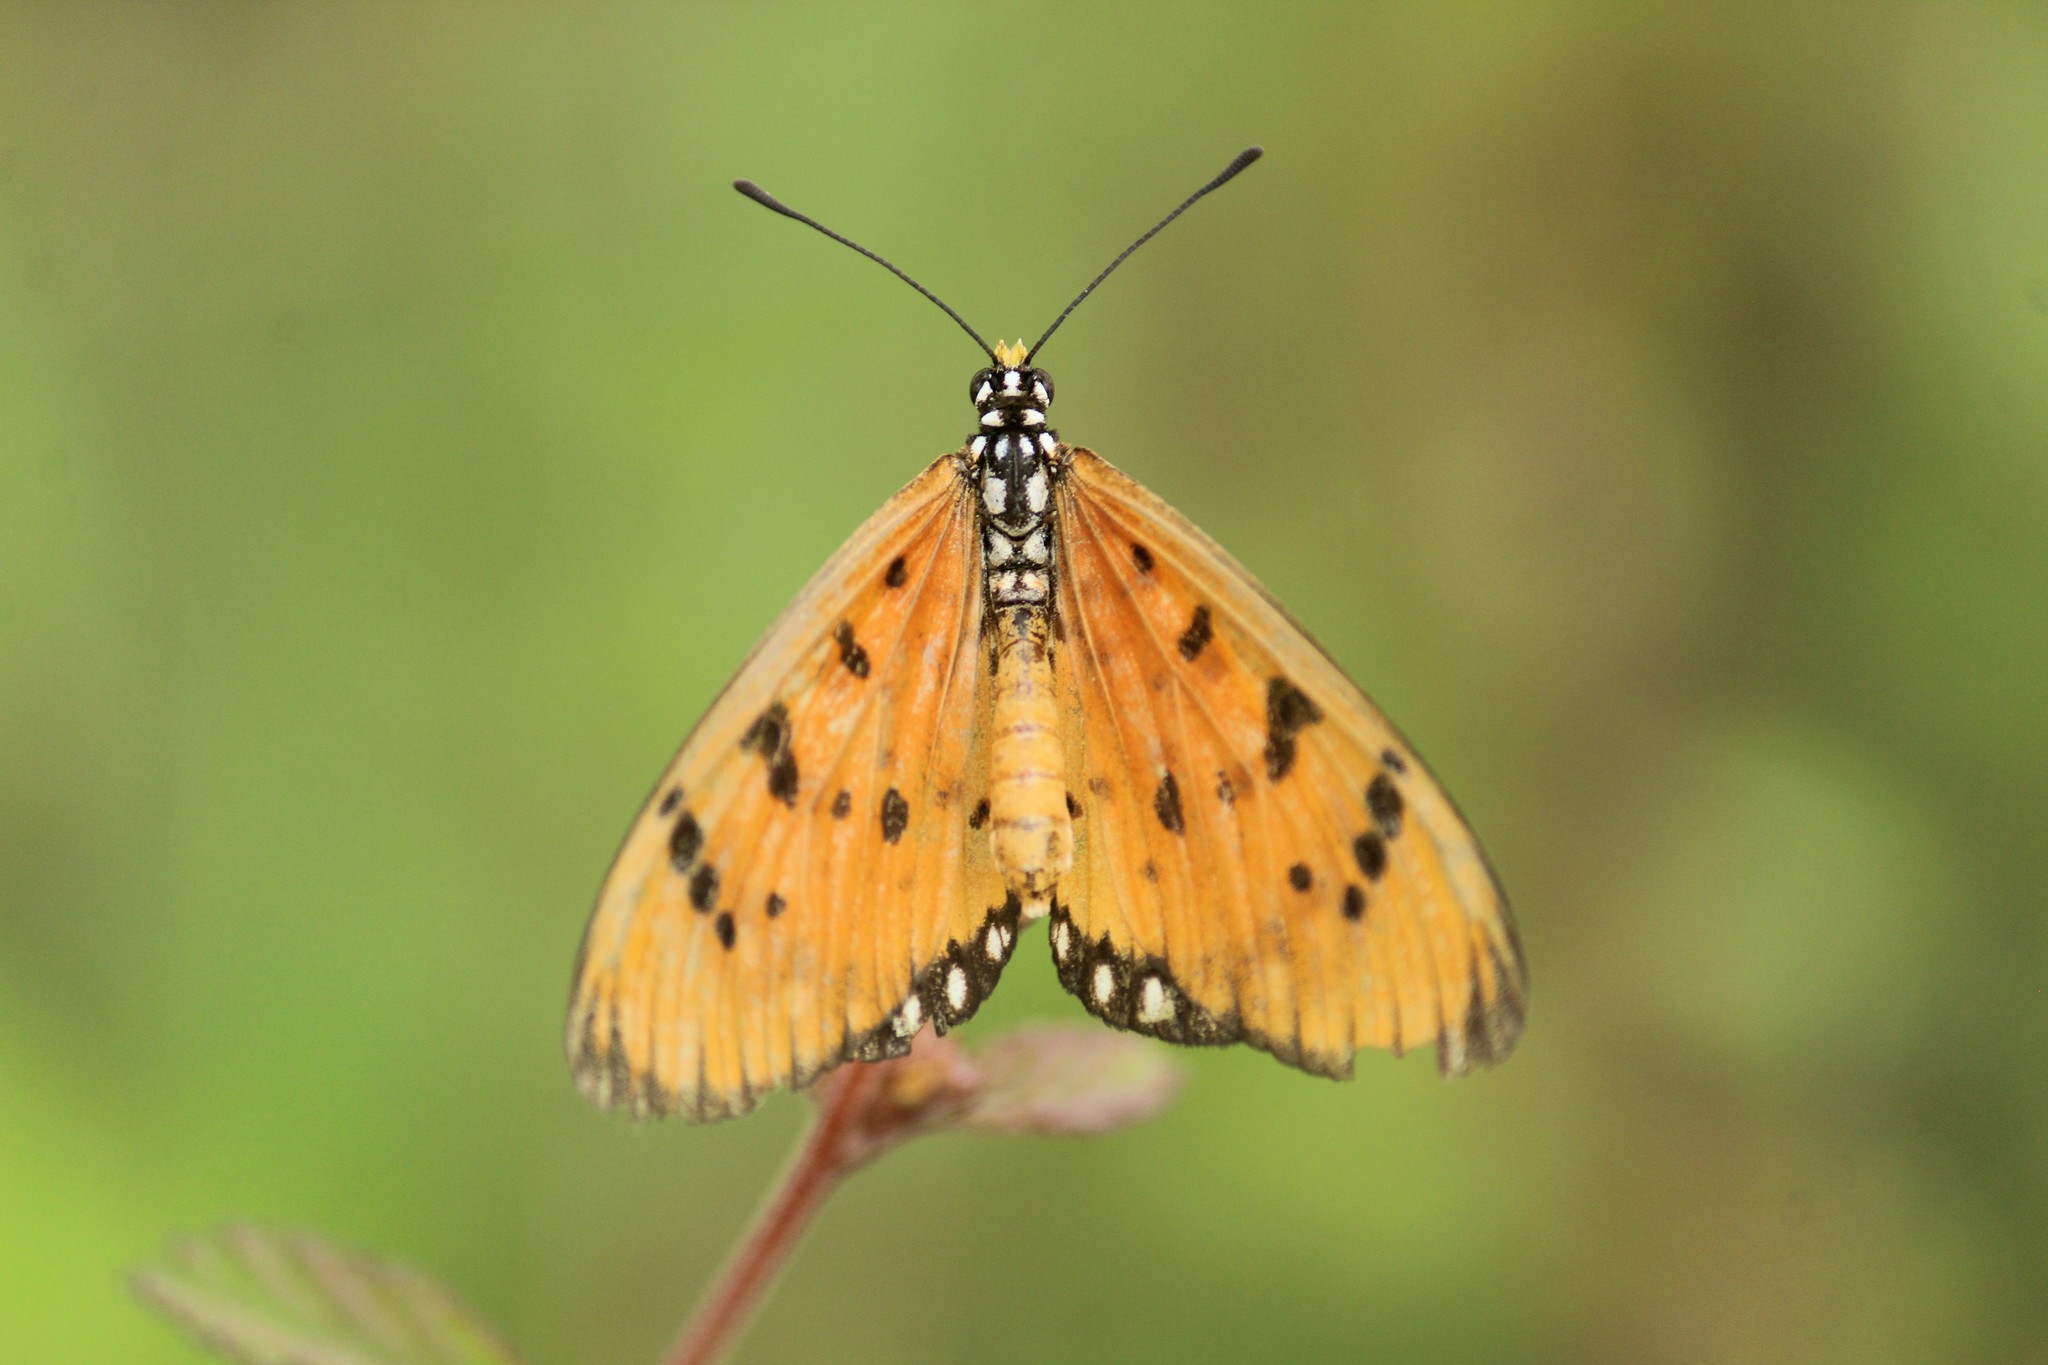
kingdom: Animalia
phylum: Arthropoda
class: Insecta
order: Lepidoptera
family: Nymphalidae
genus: Acraea
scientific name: Acraea terpsicore
